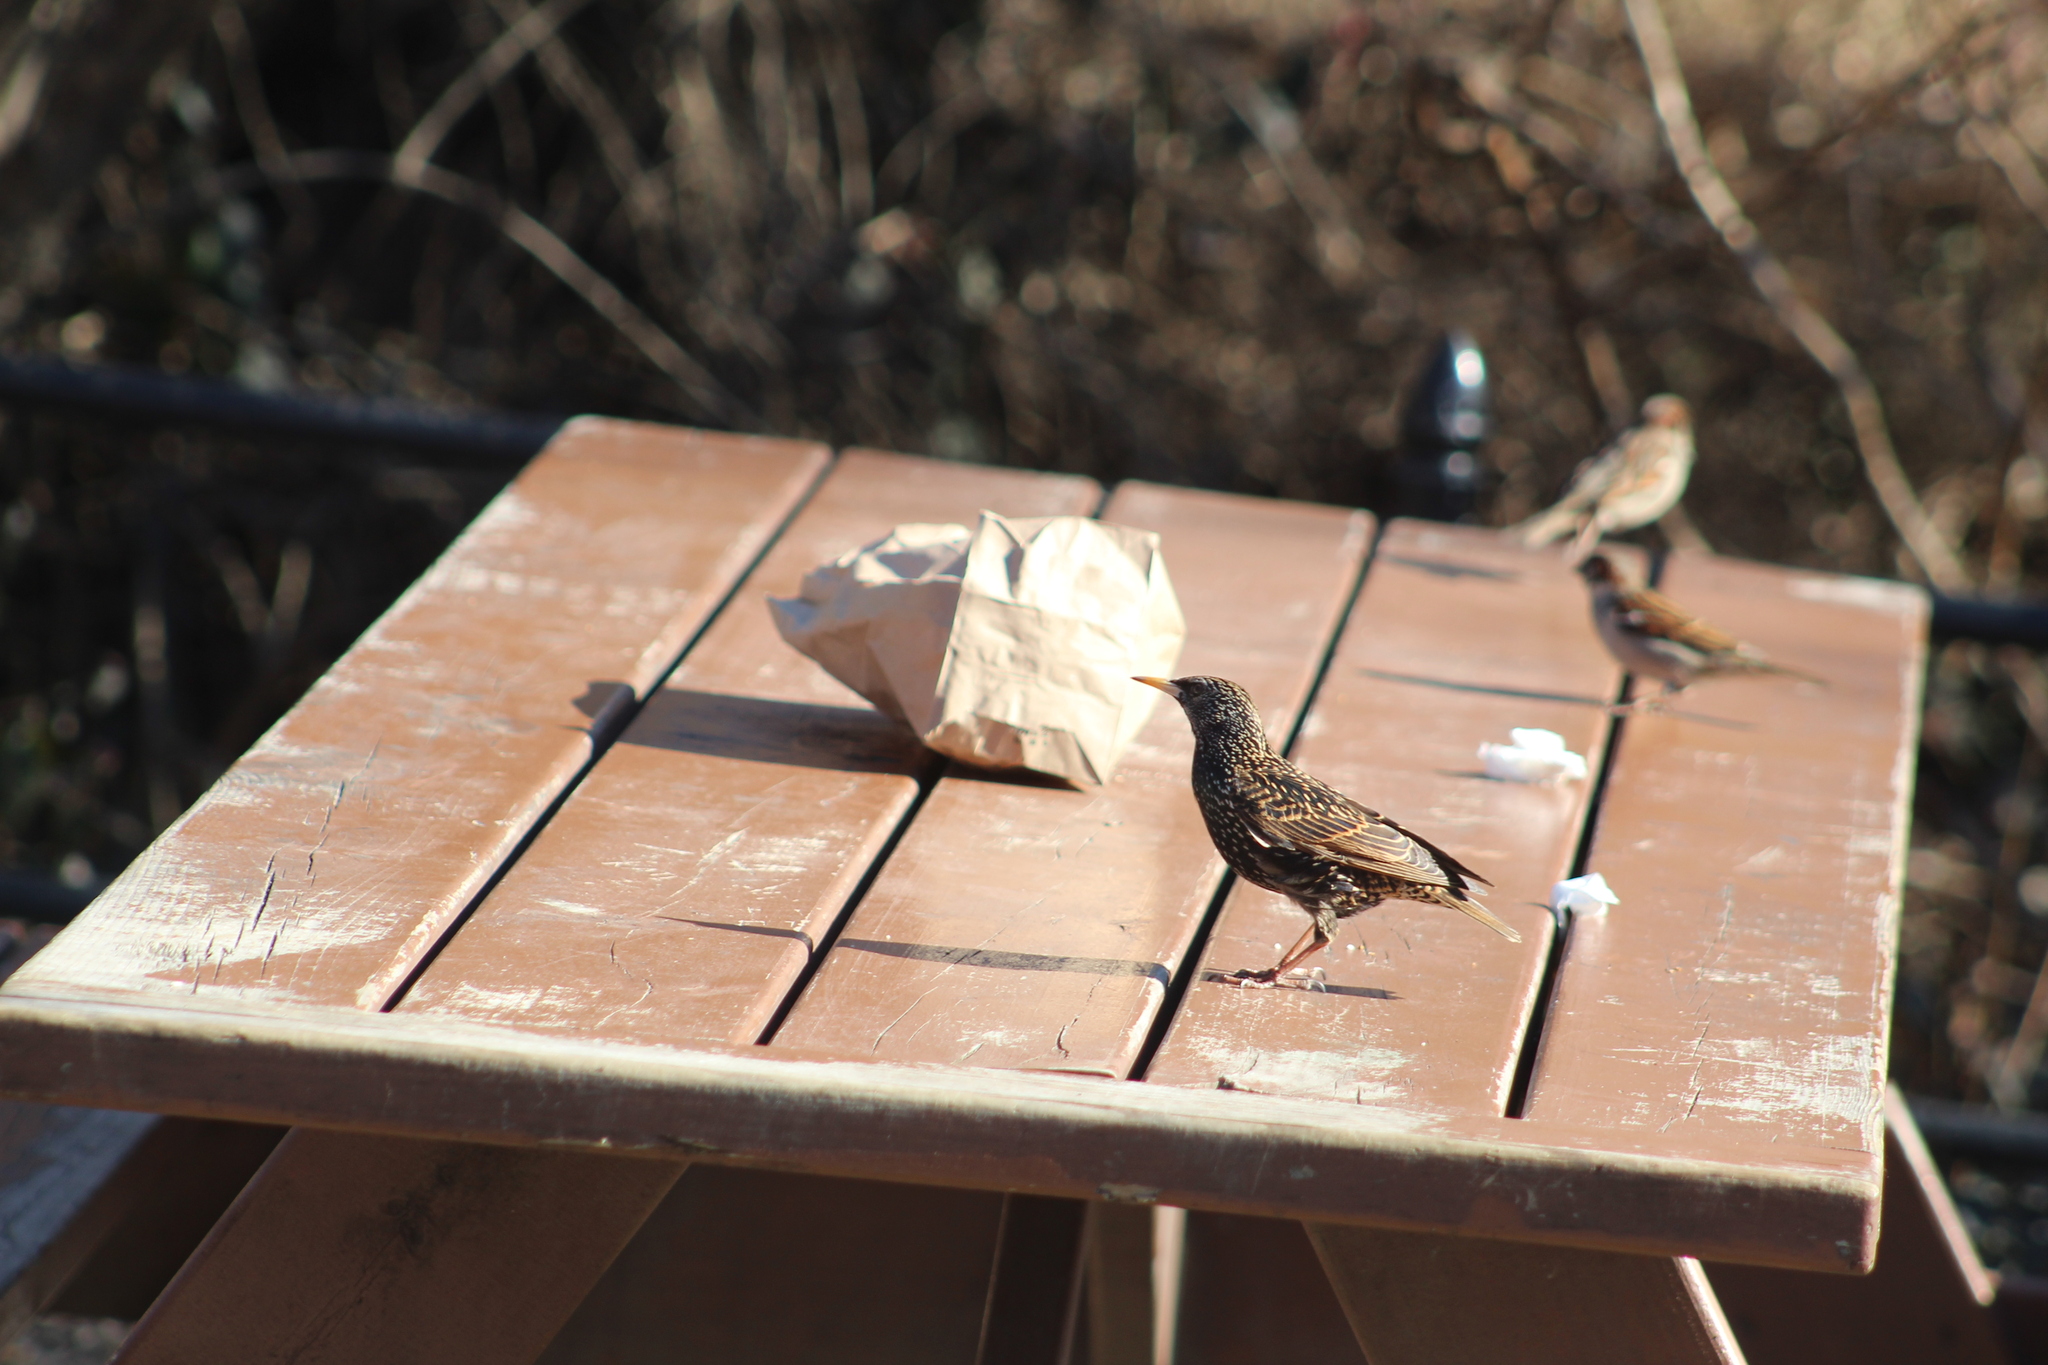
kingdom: Animalia
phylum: Chordata
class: Aves
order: Passeriformes
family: Sturnidae
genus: Sturnus
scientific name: Sturnus vulgaris
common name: Common starling
